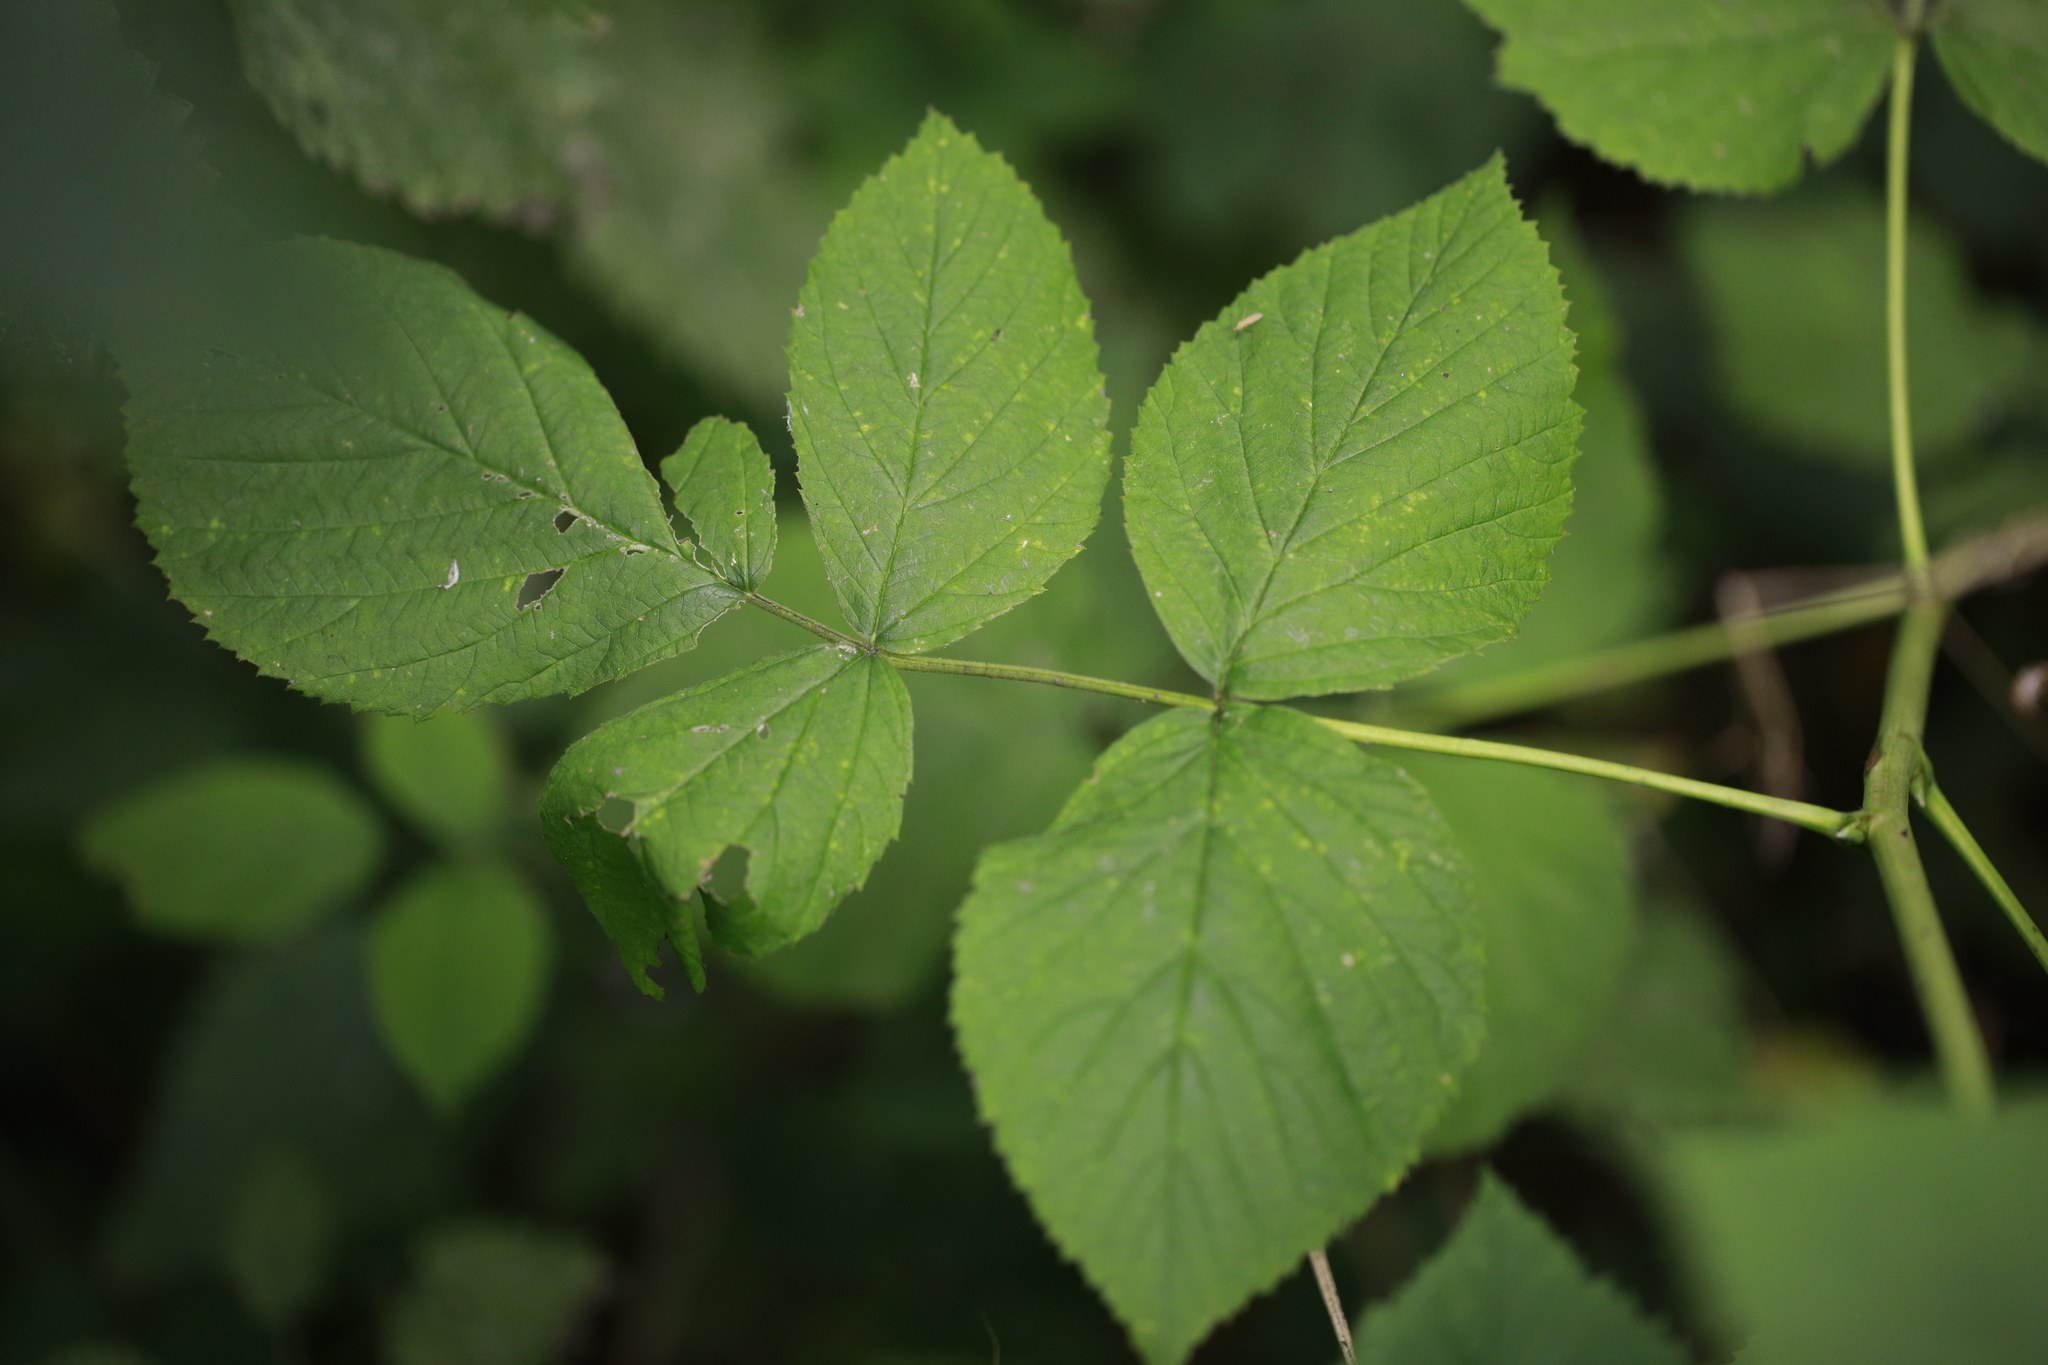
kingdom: Plantae
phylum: Tracheophyta
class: Magnoliopsida
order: Rosales
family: Rosaceae
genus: Rubus
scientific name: Rubus idaeus
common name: Raspberry
